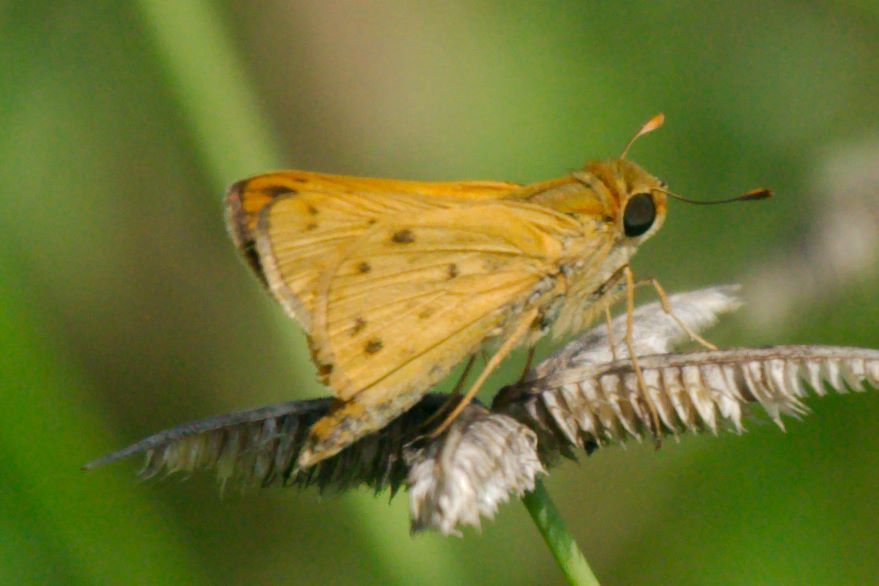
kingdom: Animalia
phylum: Arthropoda
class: Insecta
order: Lepidoptera
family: Hesperiidae
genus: Hylephila
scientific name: Hylephila phyleus
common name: Fiery skipper
